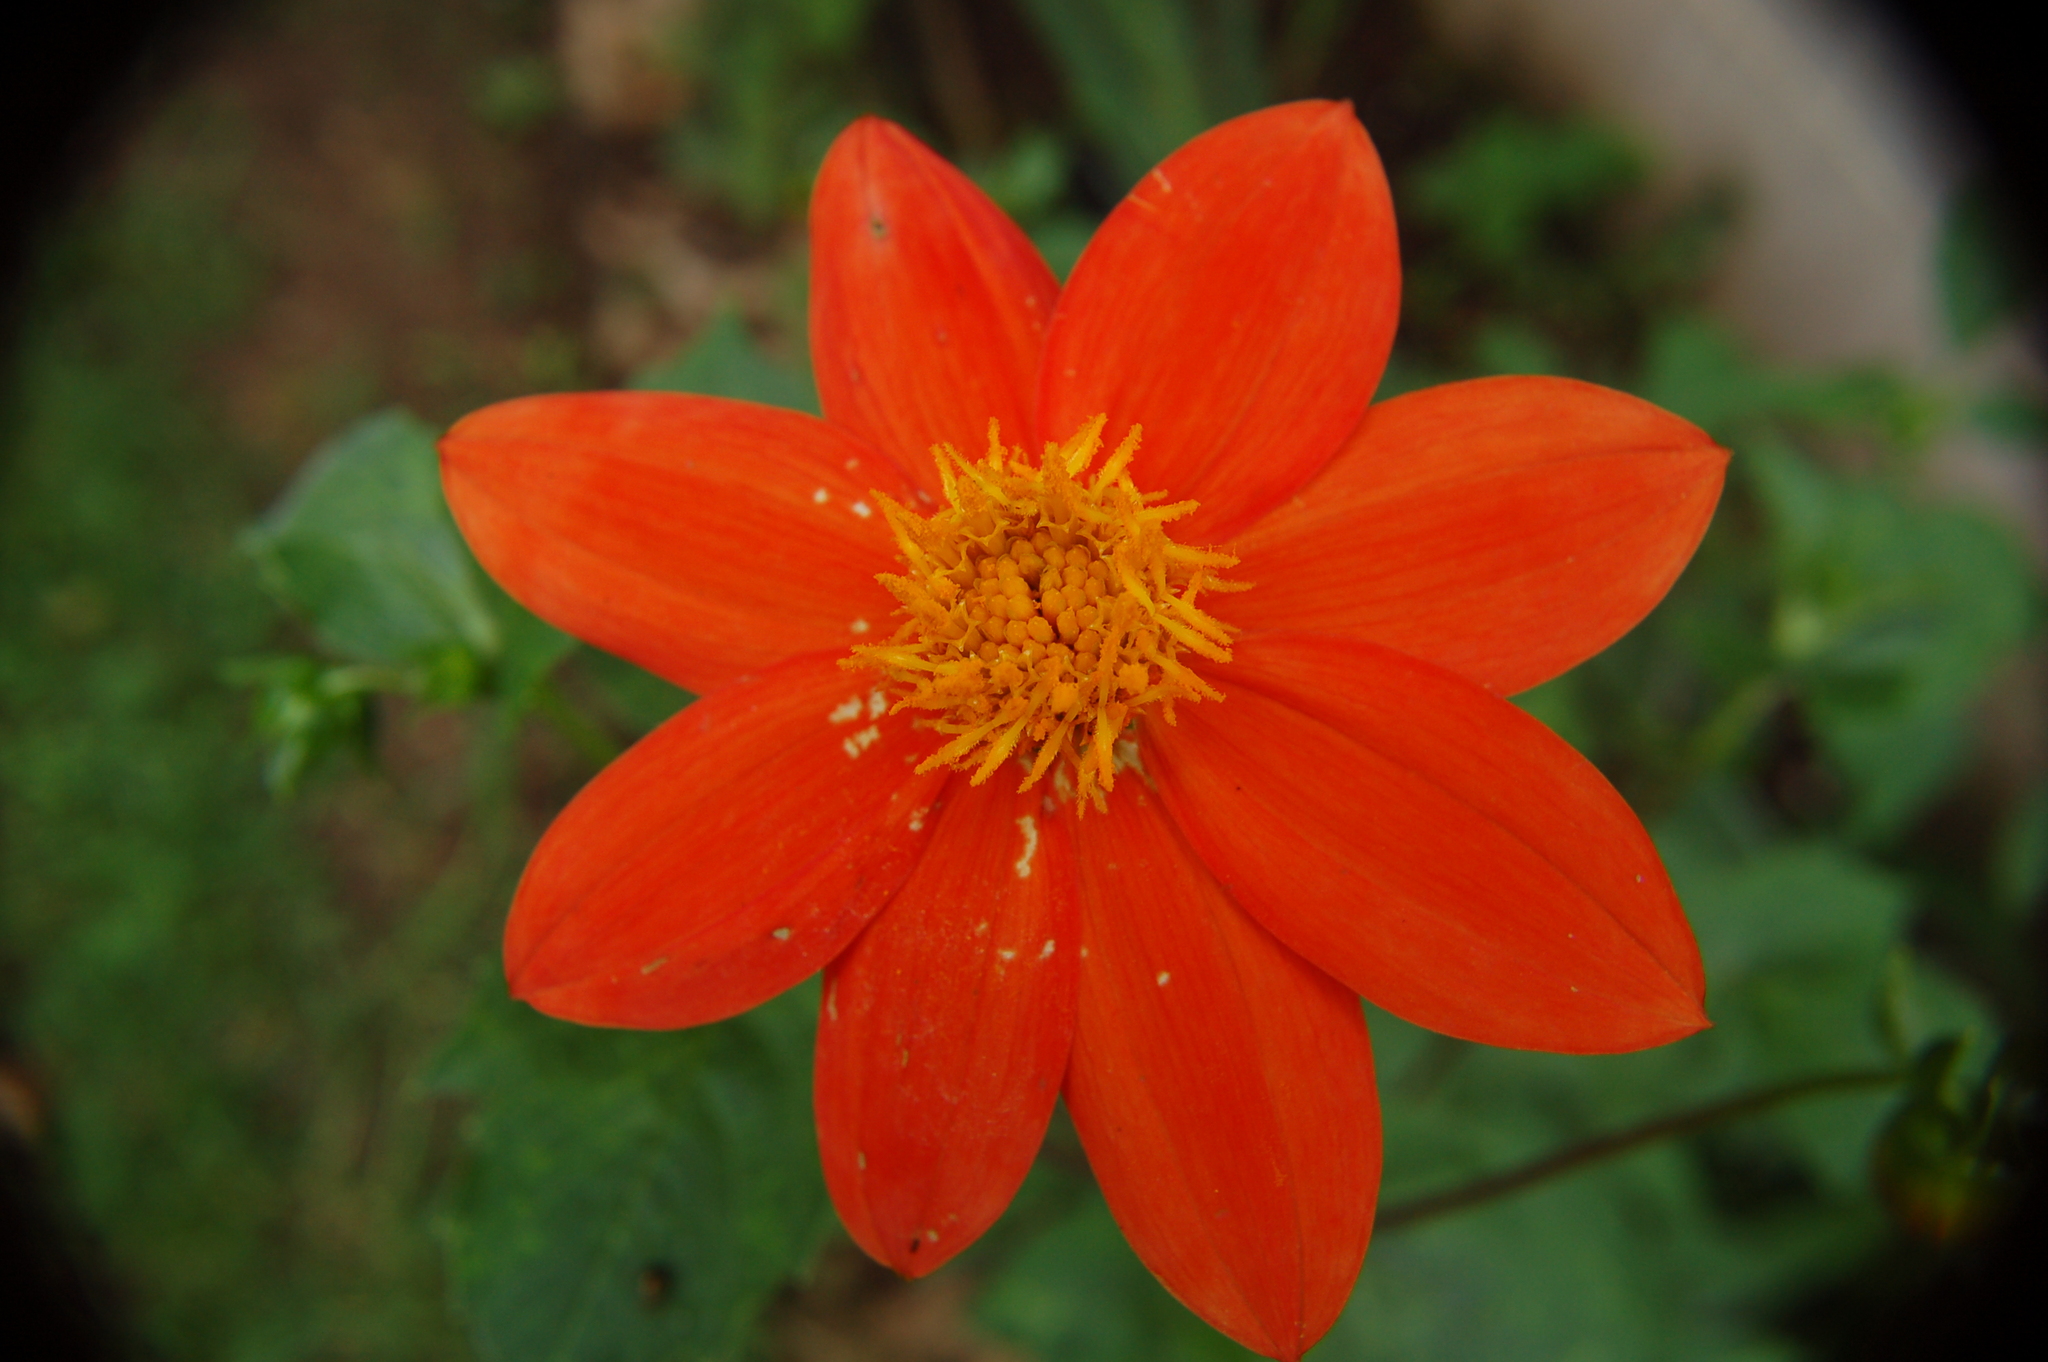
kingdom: Plantae
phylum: Tracheophyta
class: Magnoliopsida
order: Asterales
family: Asteraceae
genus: Dahlia
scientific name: Dahlia coccinea
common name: Red dahlia
